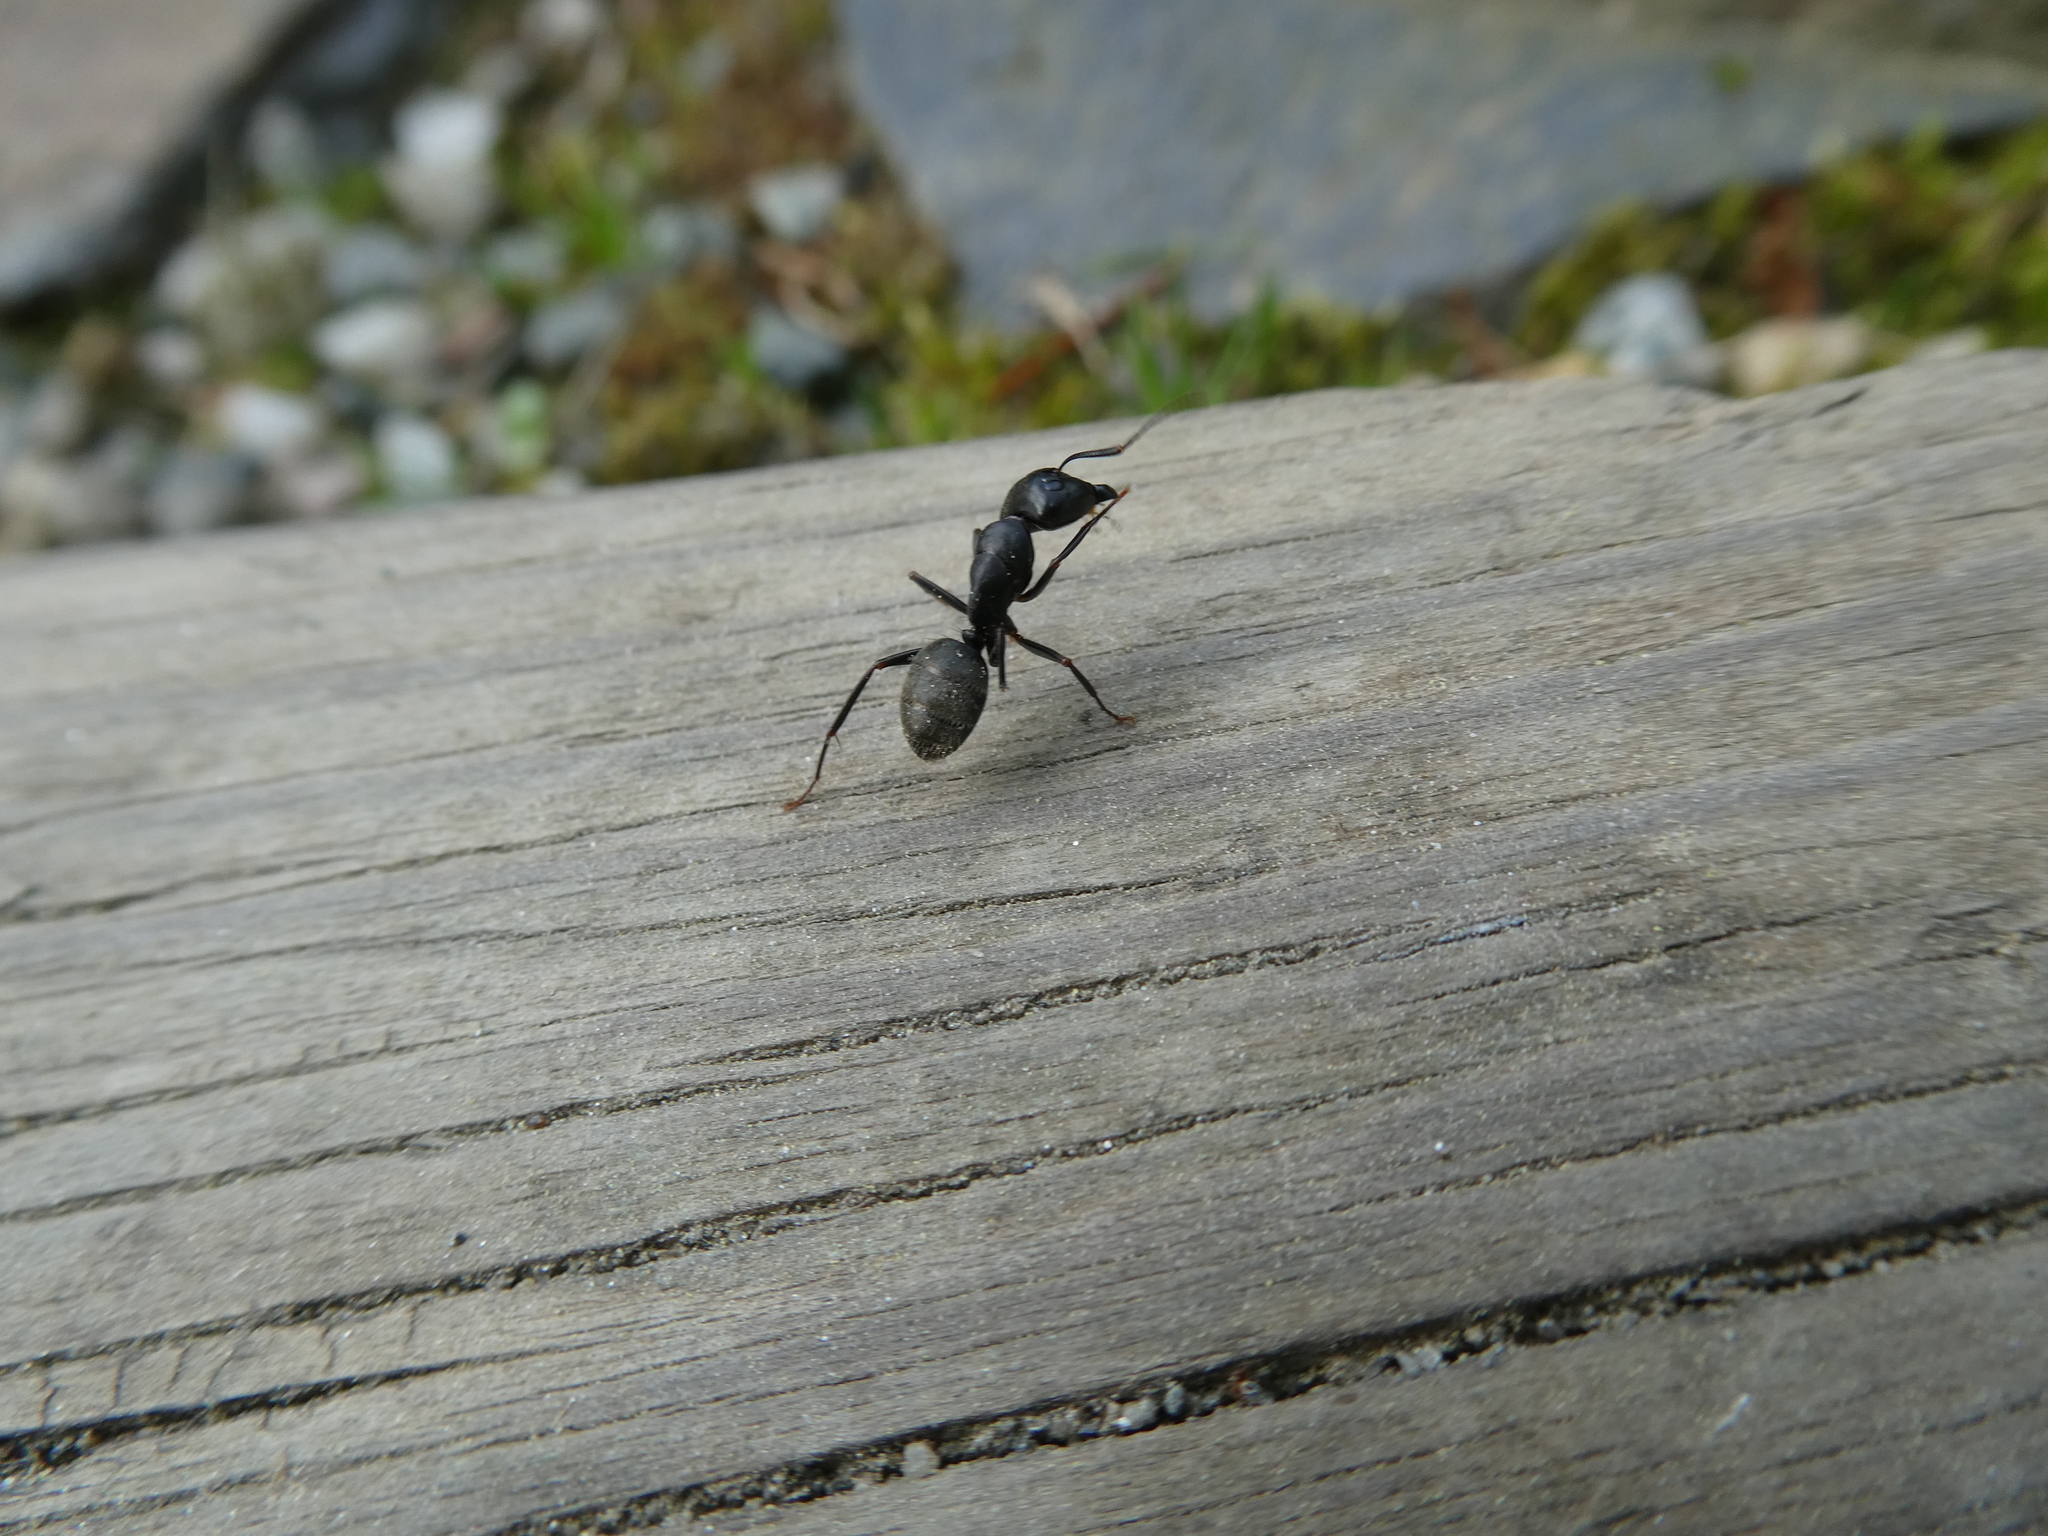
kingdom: Animalia
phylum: Arthropoda
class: Insecta
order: Hymenoptera
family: Formicidae
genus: Camponotus
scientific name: Camponotus pennsylvanicus
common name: Black carpenter ant
